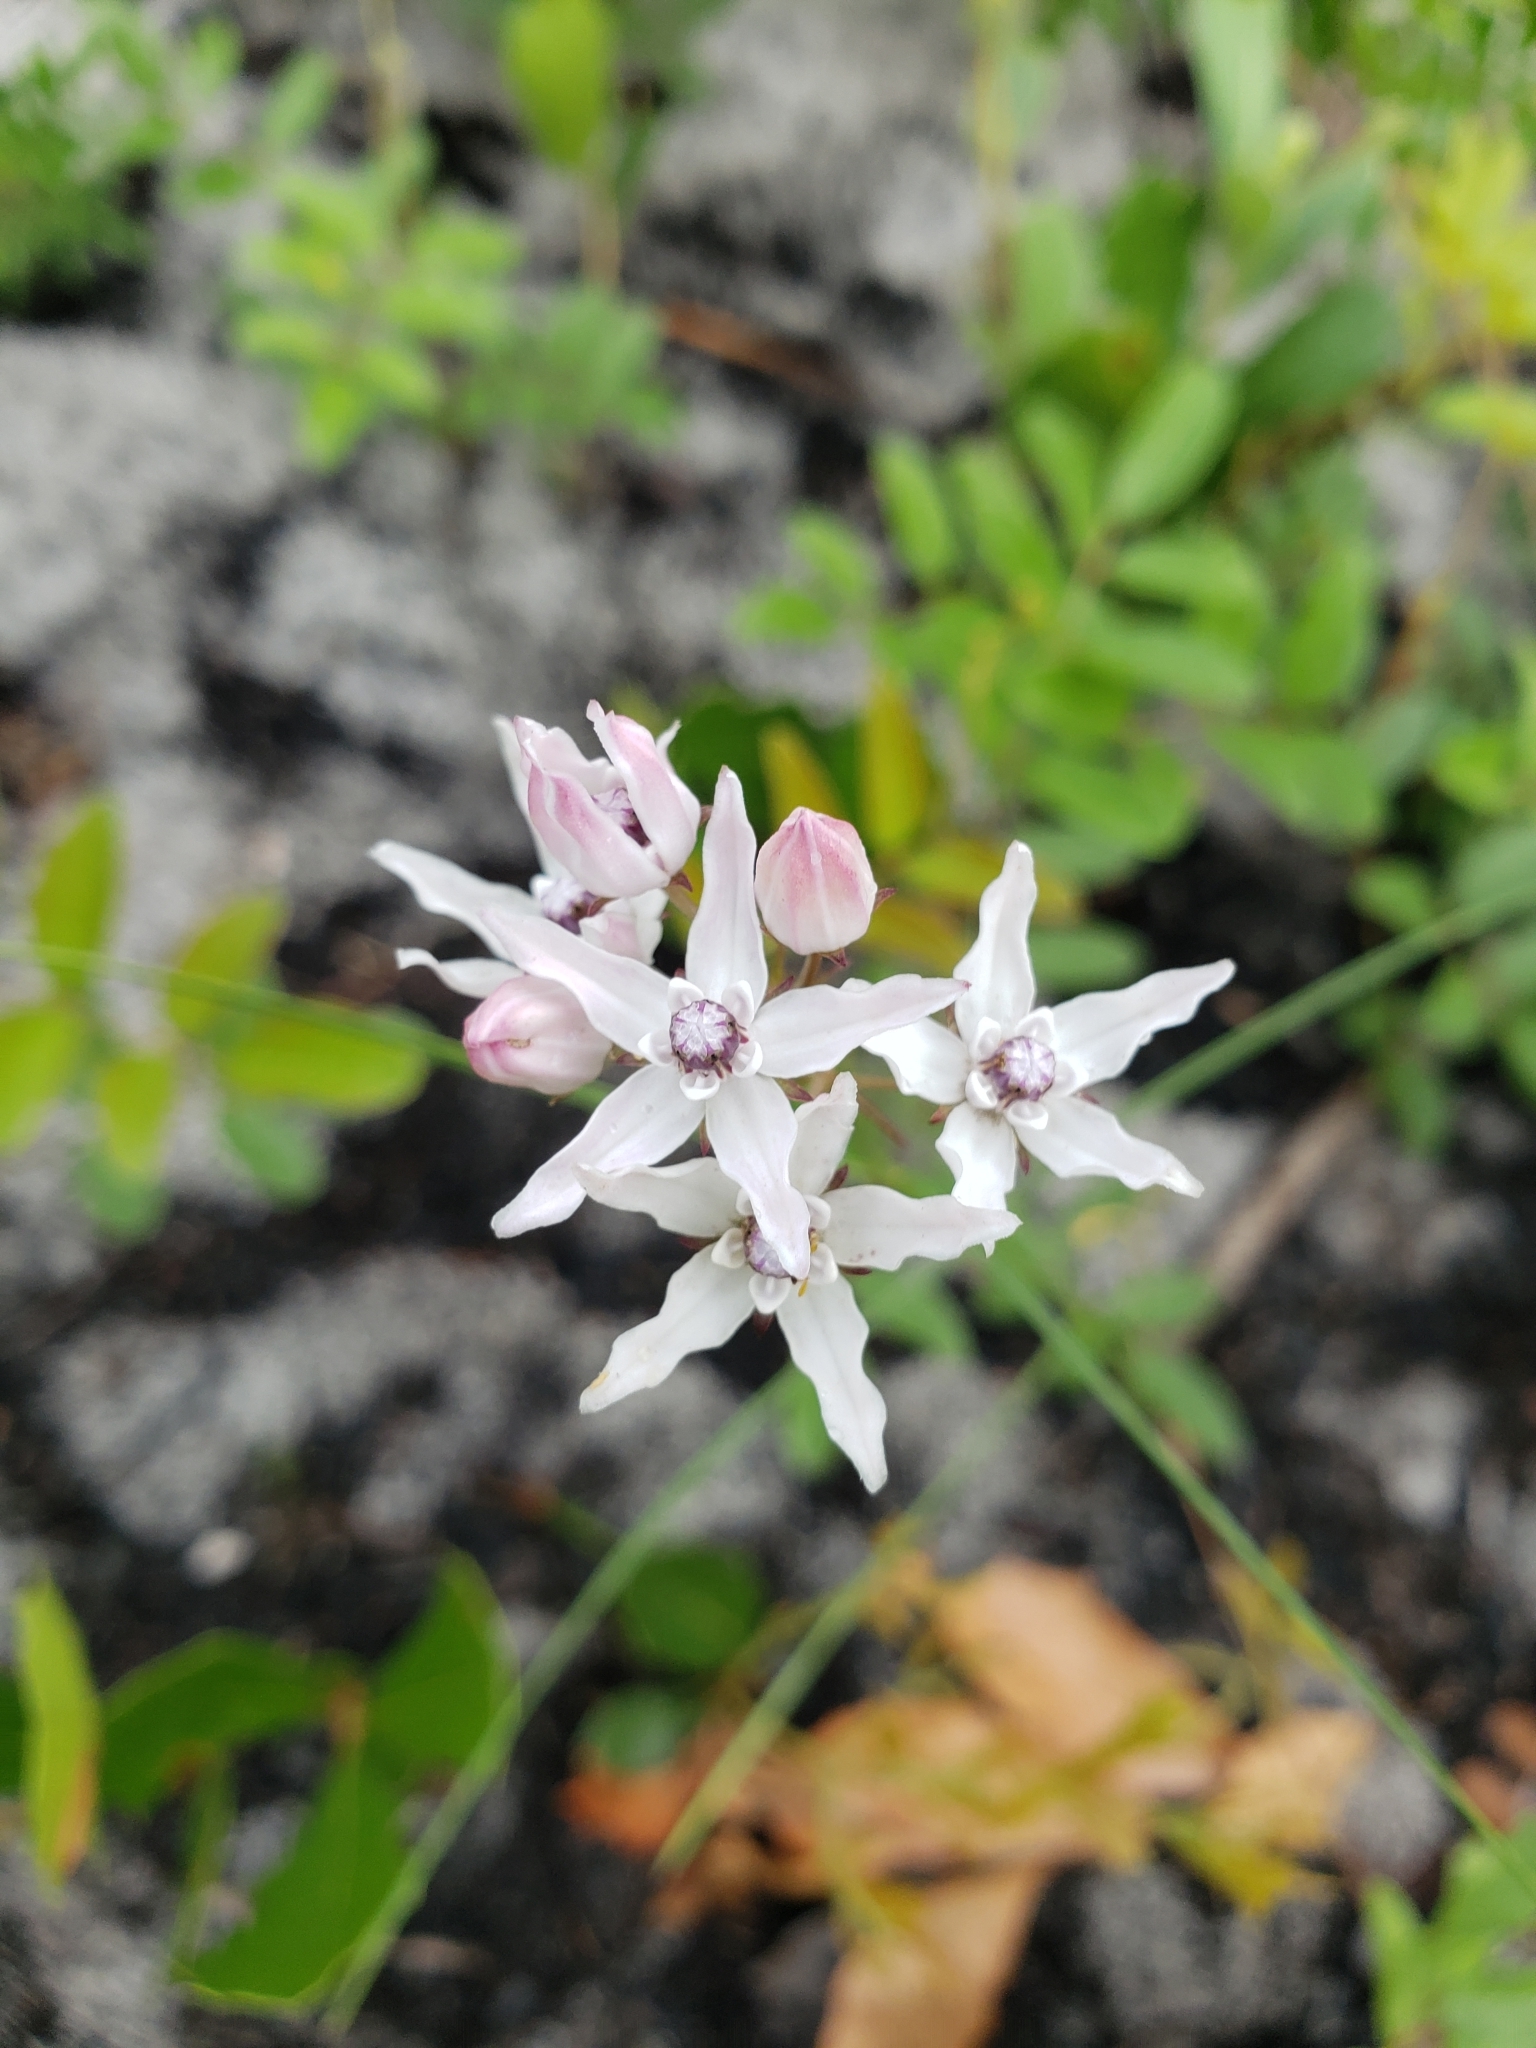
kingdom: Plantae
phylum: Tracheophyta
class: Magnoliopsida
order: Gentianales
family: Apocynaceae
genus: Asclepias
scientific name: Asclepias feayi
